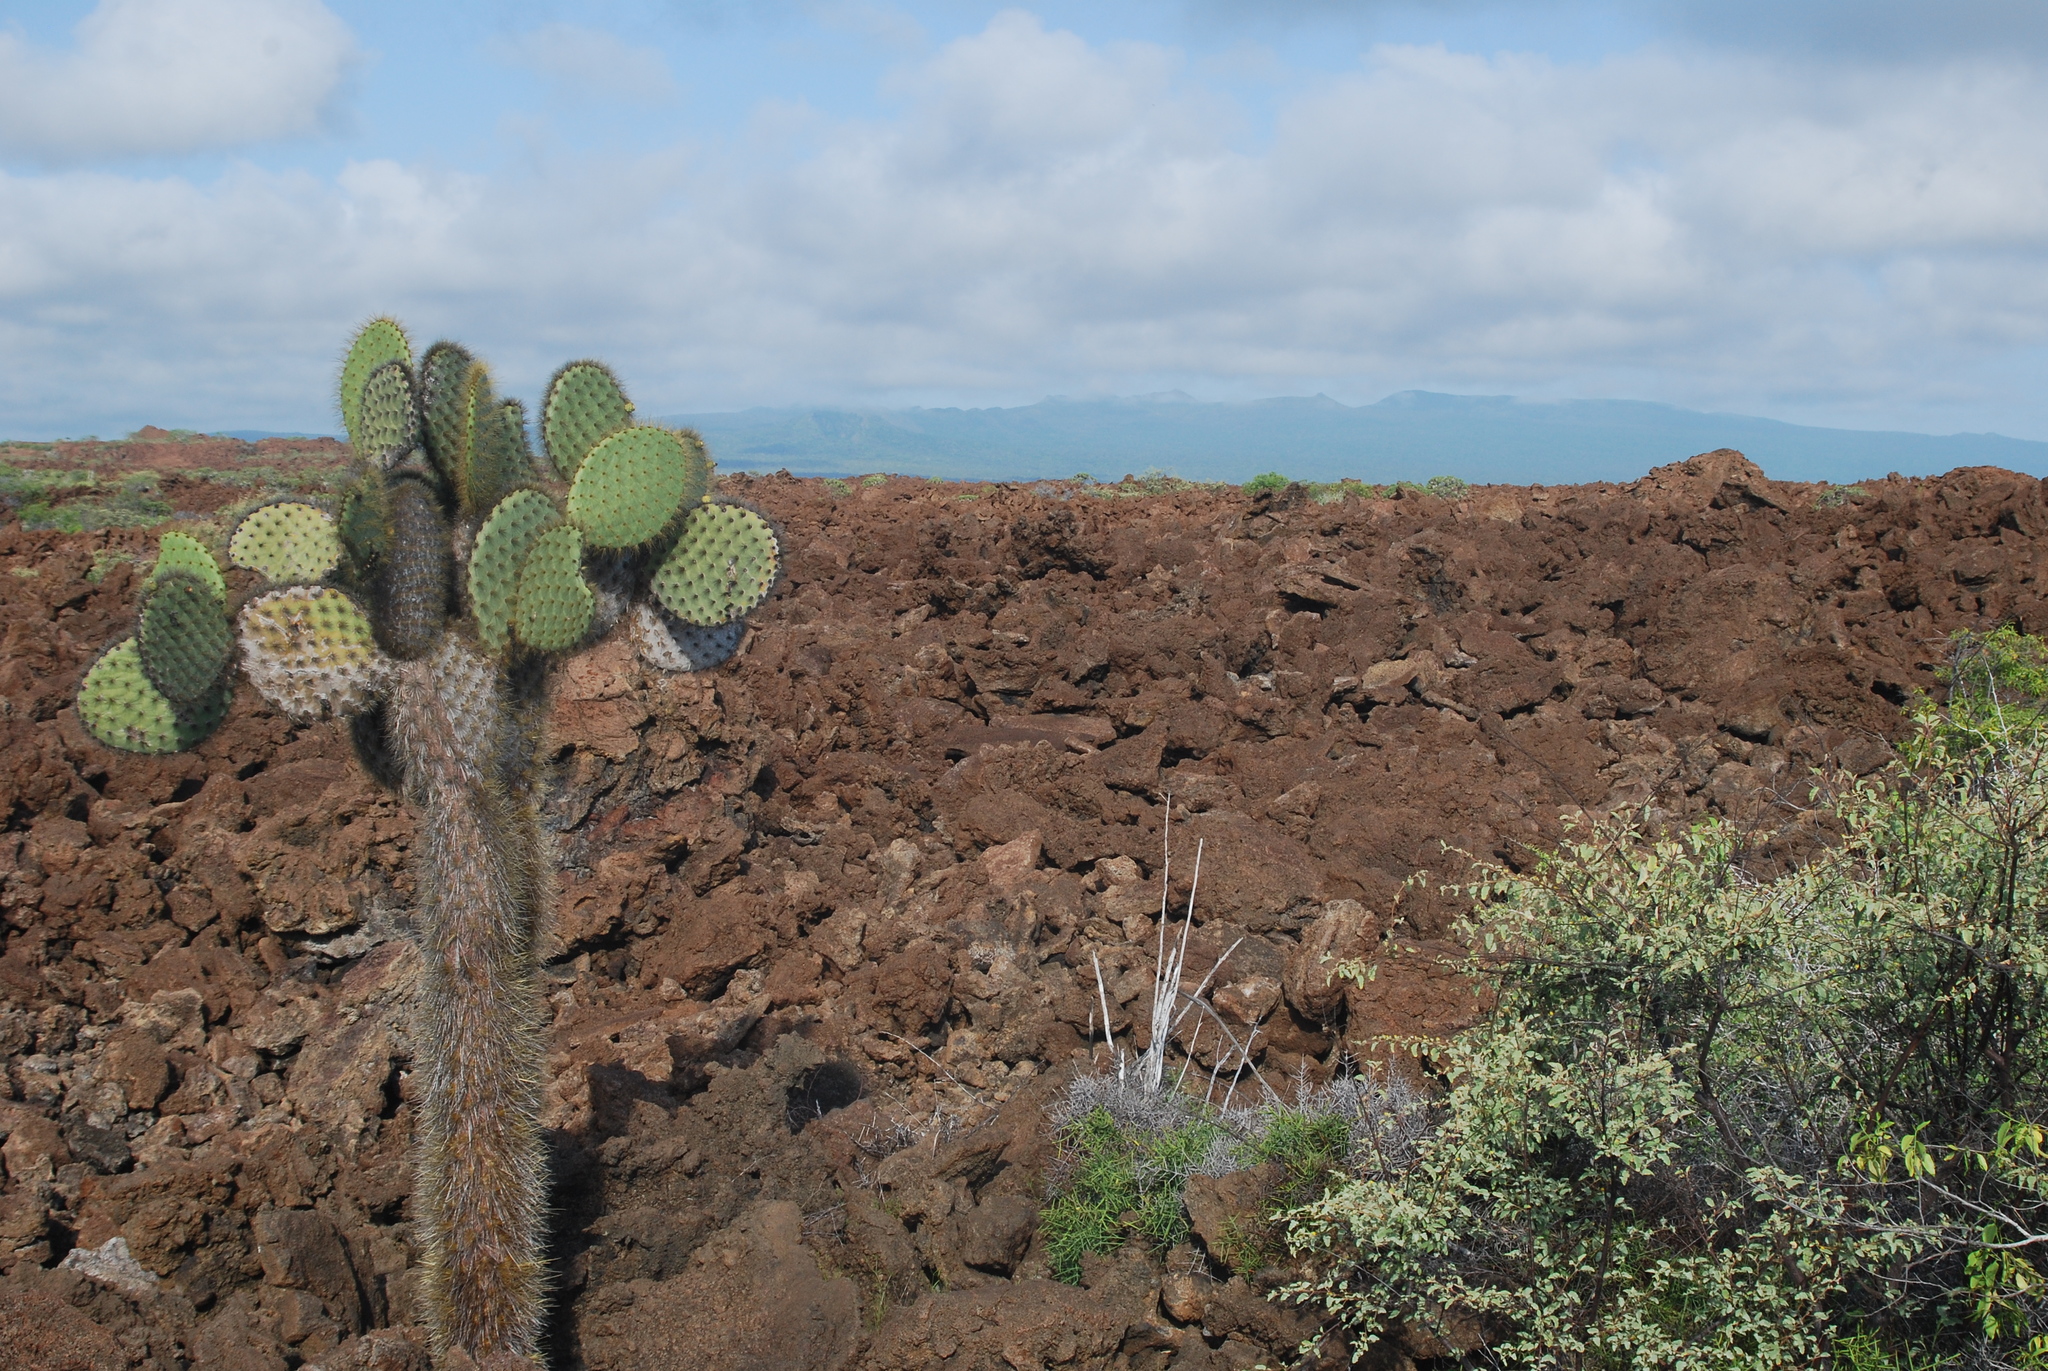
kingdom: Plantae
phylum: Tracheophyta
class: Magnoliopsida
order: Caryophyllales
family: Cactaceae
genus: Opuntia
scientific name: Opuntia galapageia
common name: Galápagos prickly pear
